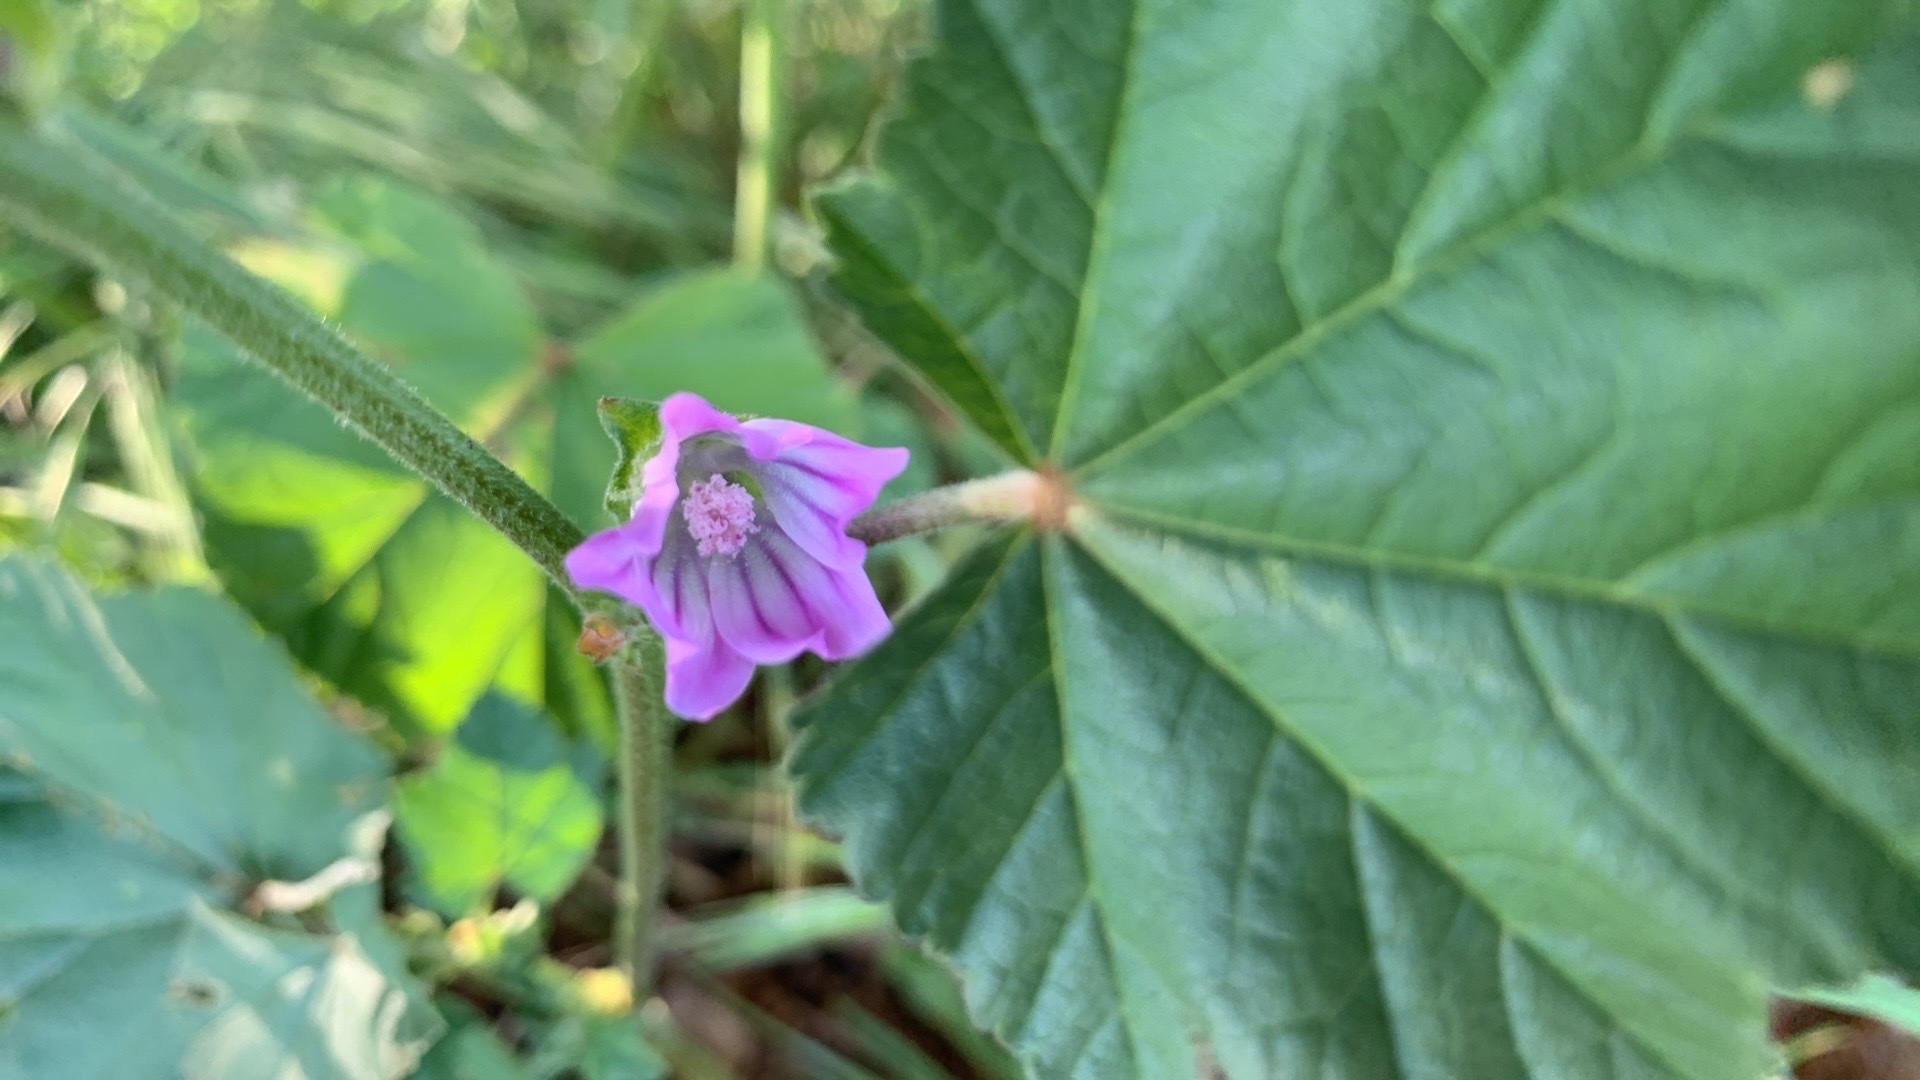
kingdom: Plantae
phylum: Tracheophyta
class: Magnoliopsida
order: Malvales
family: Malvaceae
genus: Malva
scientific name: Malva multiflora
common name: Cheeseweed
